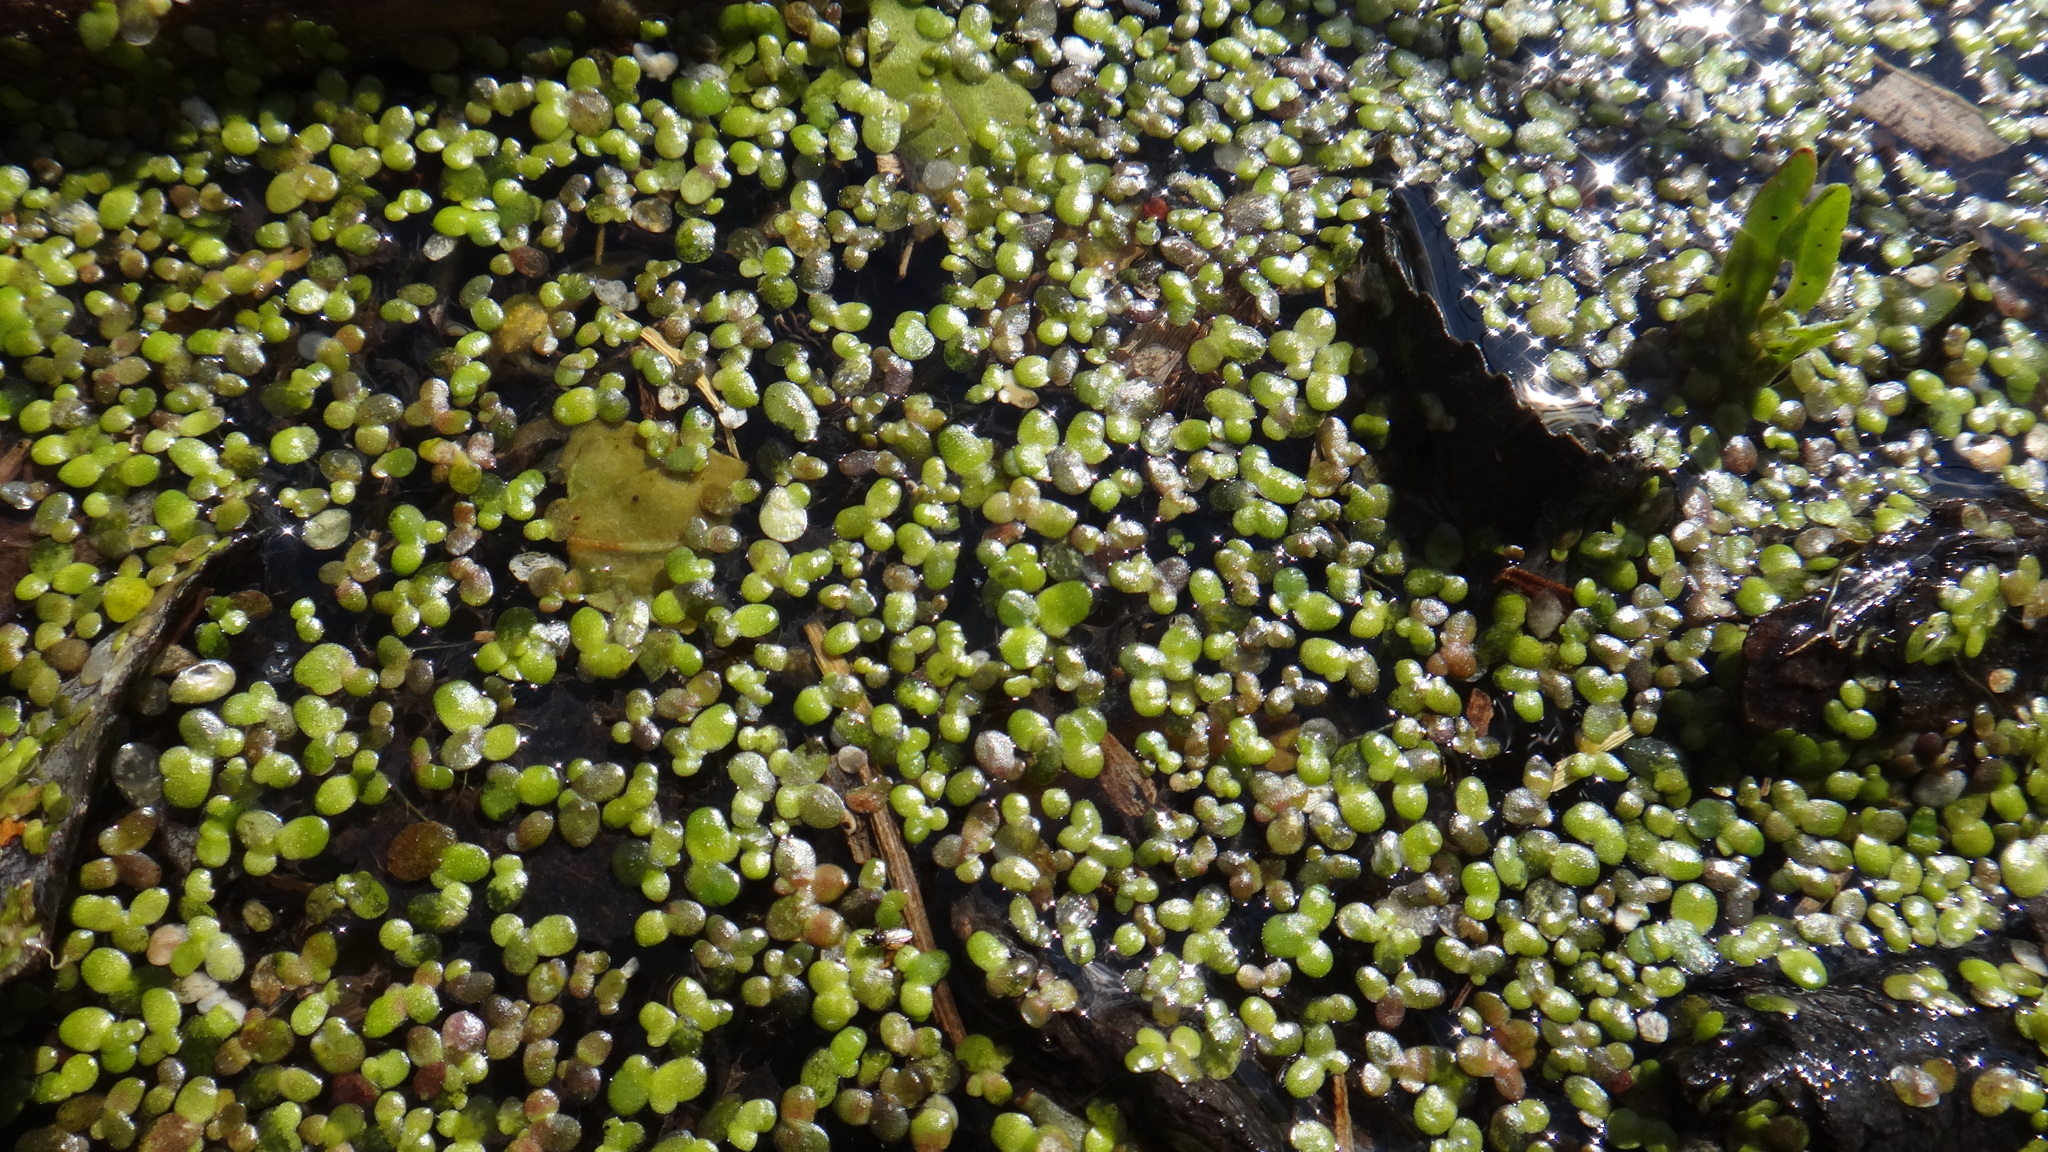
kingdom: Plantae
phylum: Tracheophyta
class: Liliopsida
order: Alismatales
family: Araceae
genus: Lemna
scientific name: Lemna minor
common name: Common duckweed
